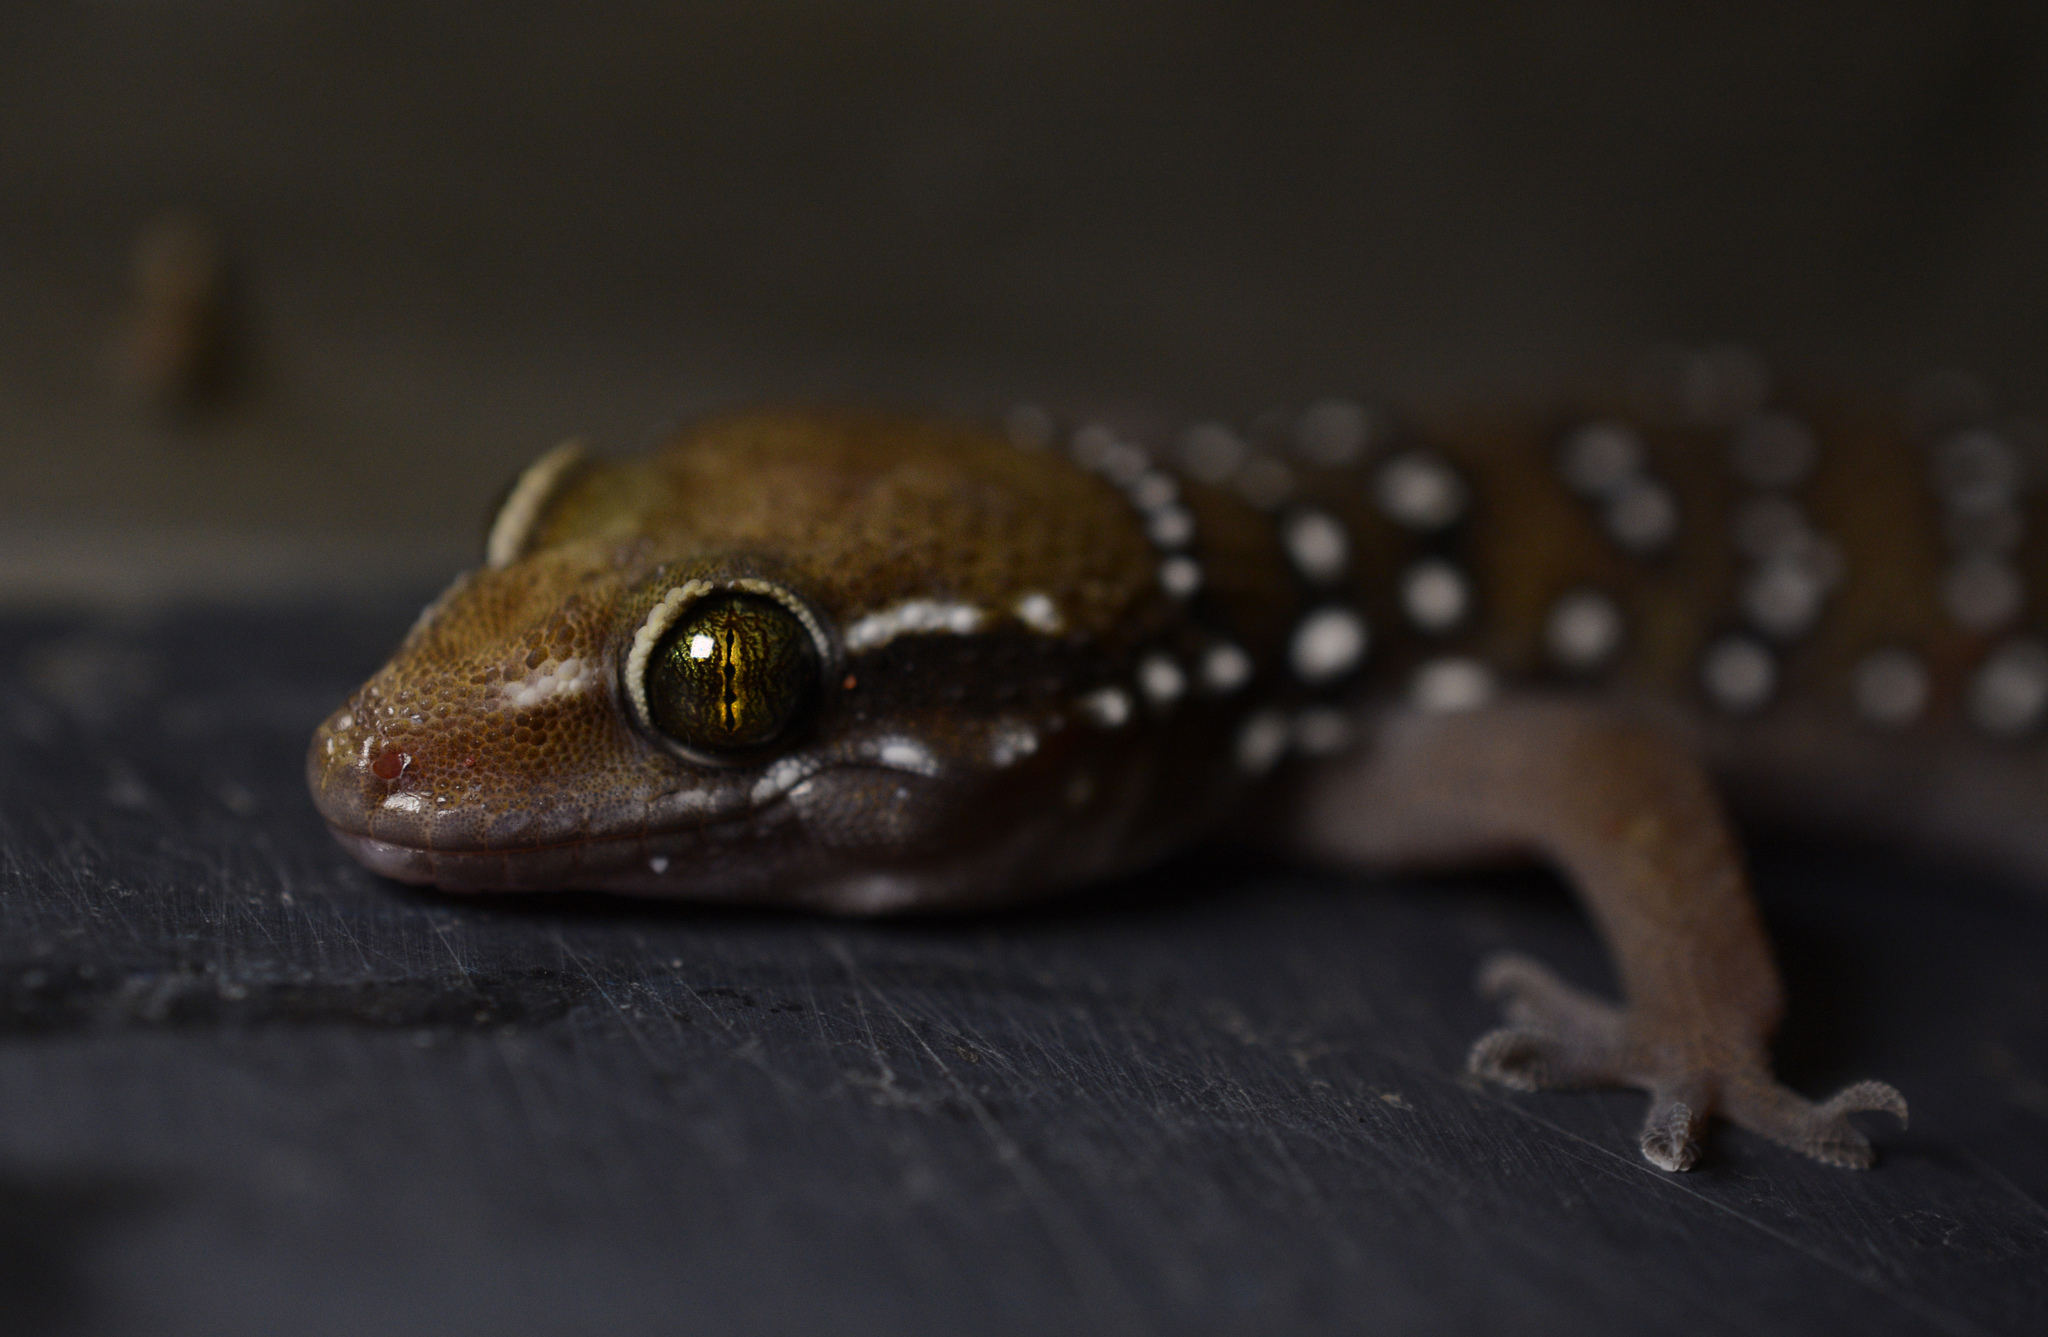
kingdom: Animalia
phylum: Chordata
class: Squamata
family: Gekkonidae
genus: Hemidactylus
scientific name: Hemidactylus whitakeri
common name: Whitaker’s termite hill gecko
